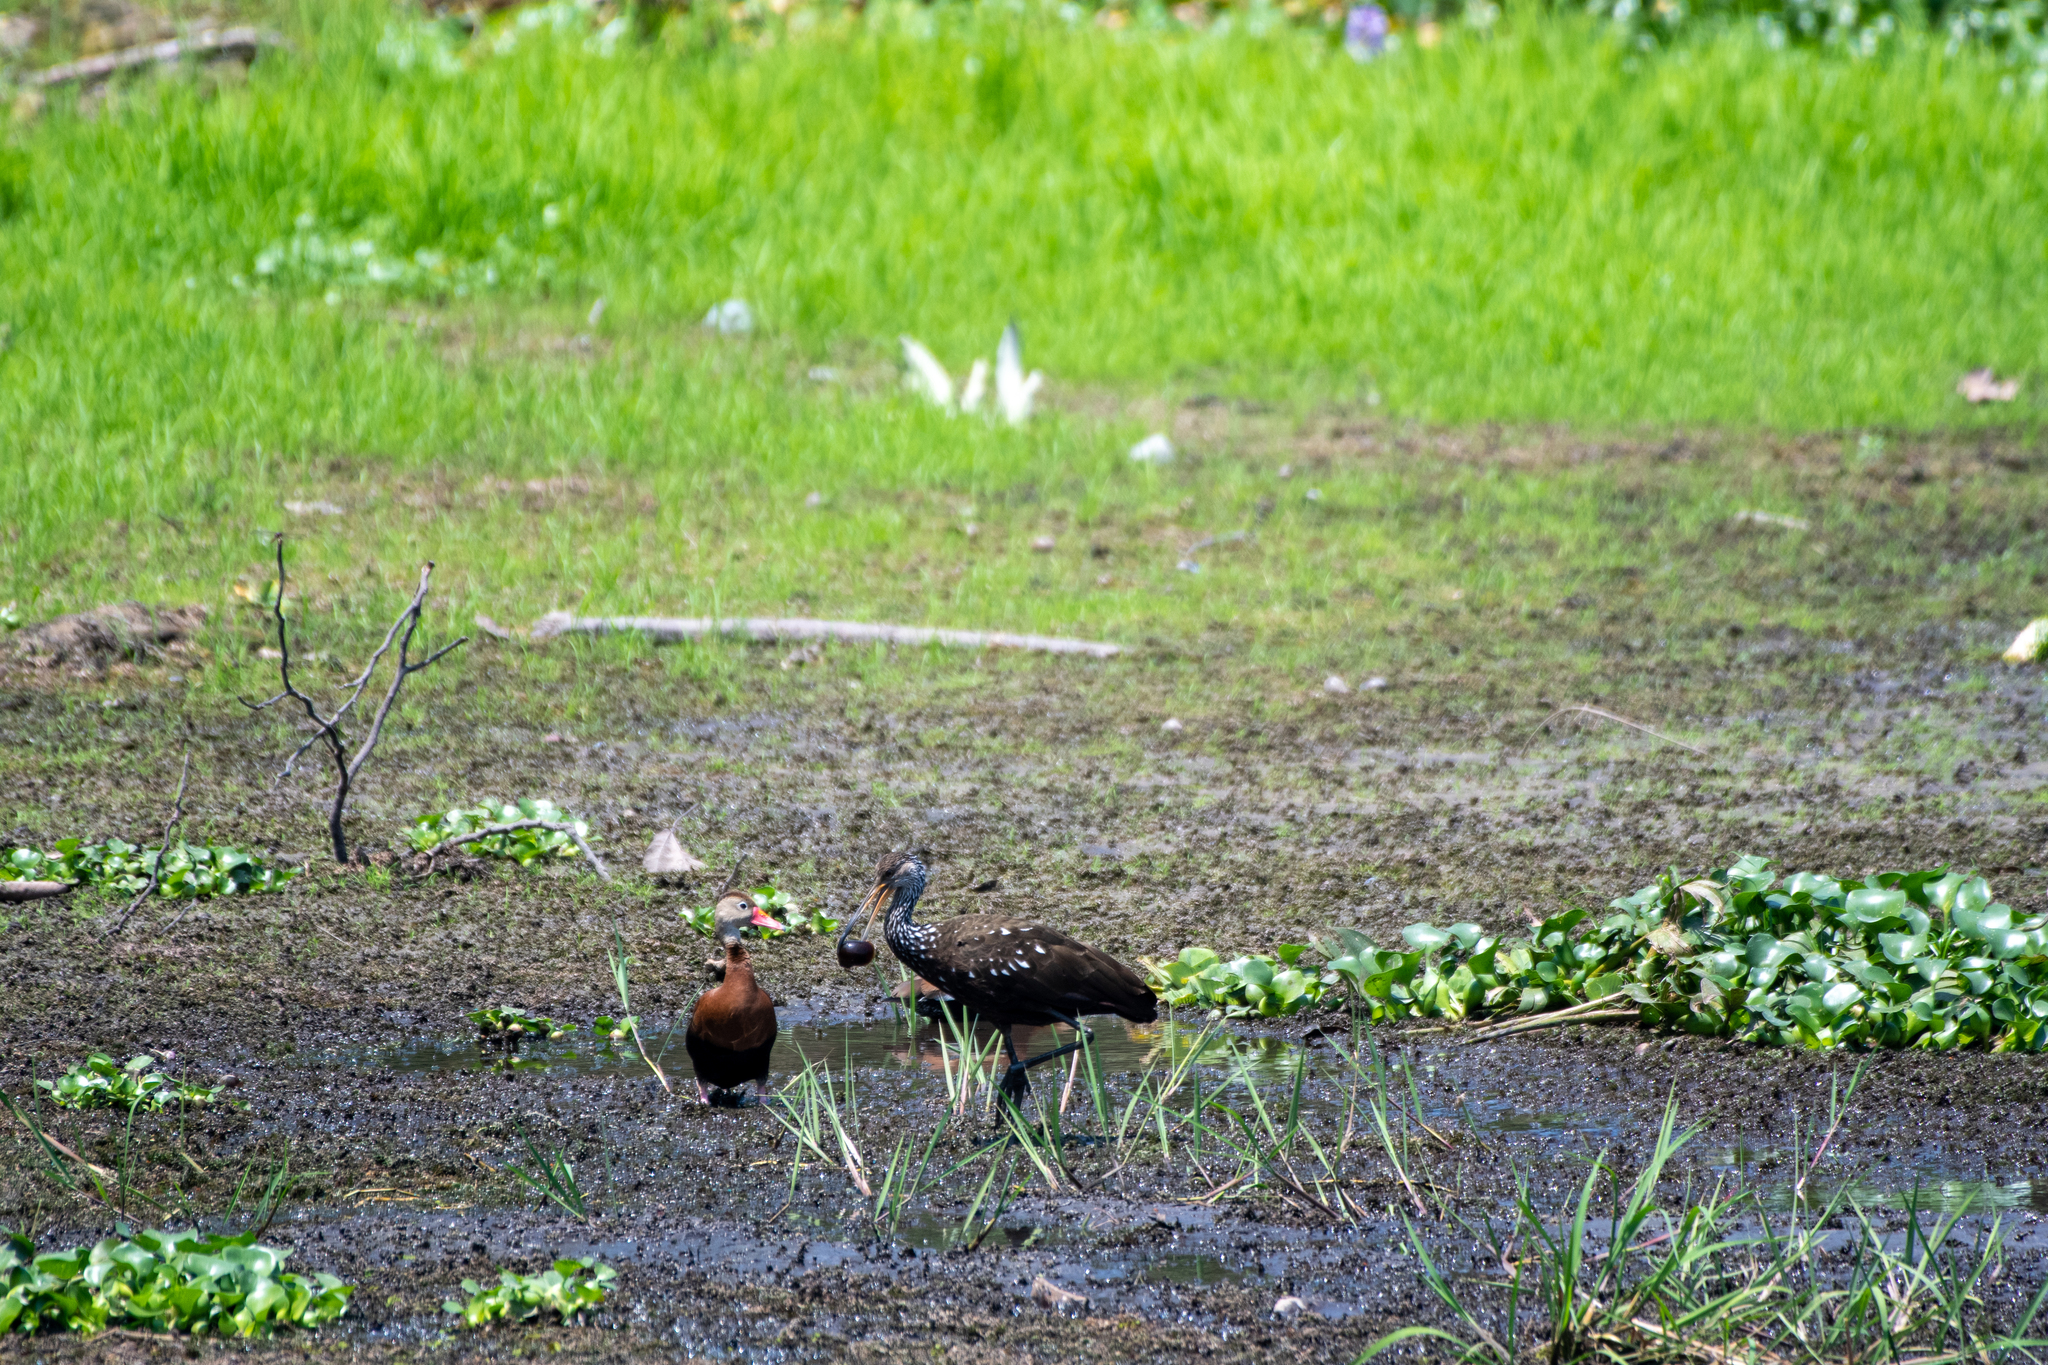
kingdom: Animalia
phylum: Chordata
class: Aves
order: Gruiformes
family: Aramidae
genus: Aramus
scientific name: Aramus guarauna
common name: Limpkin
